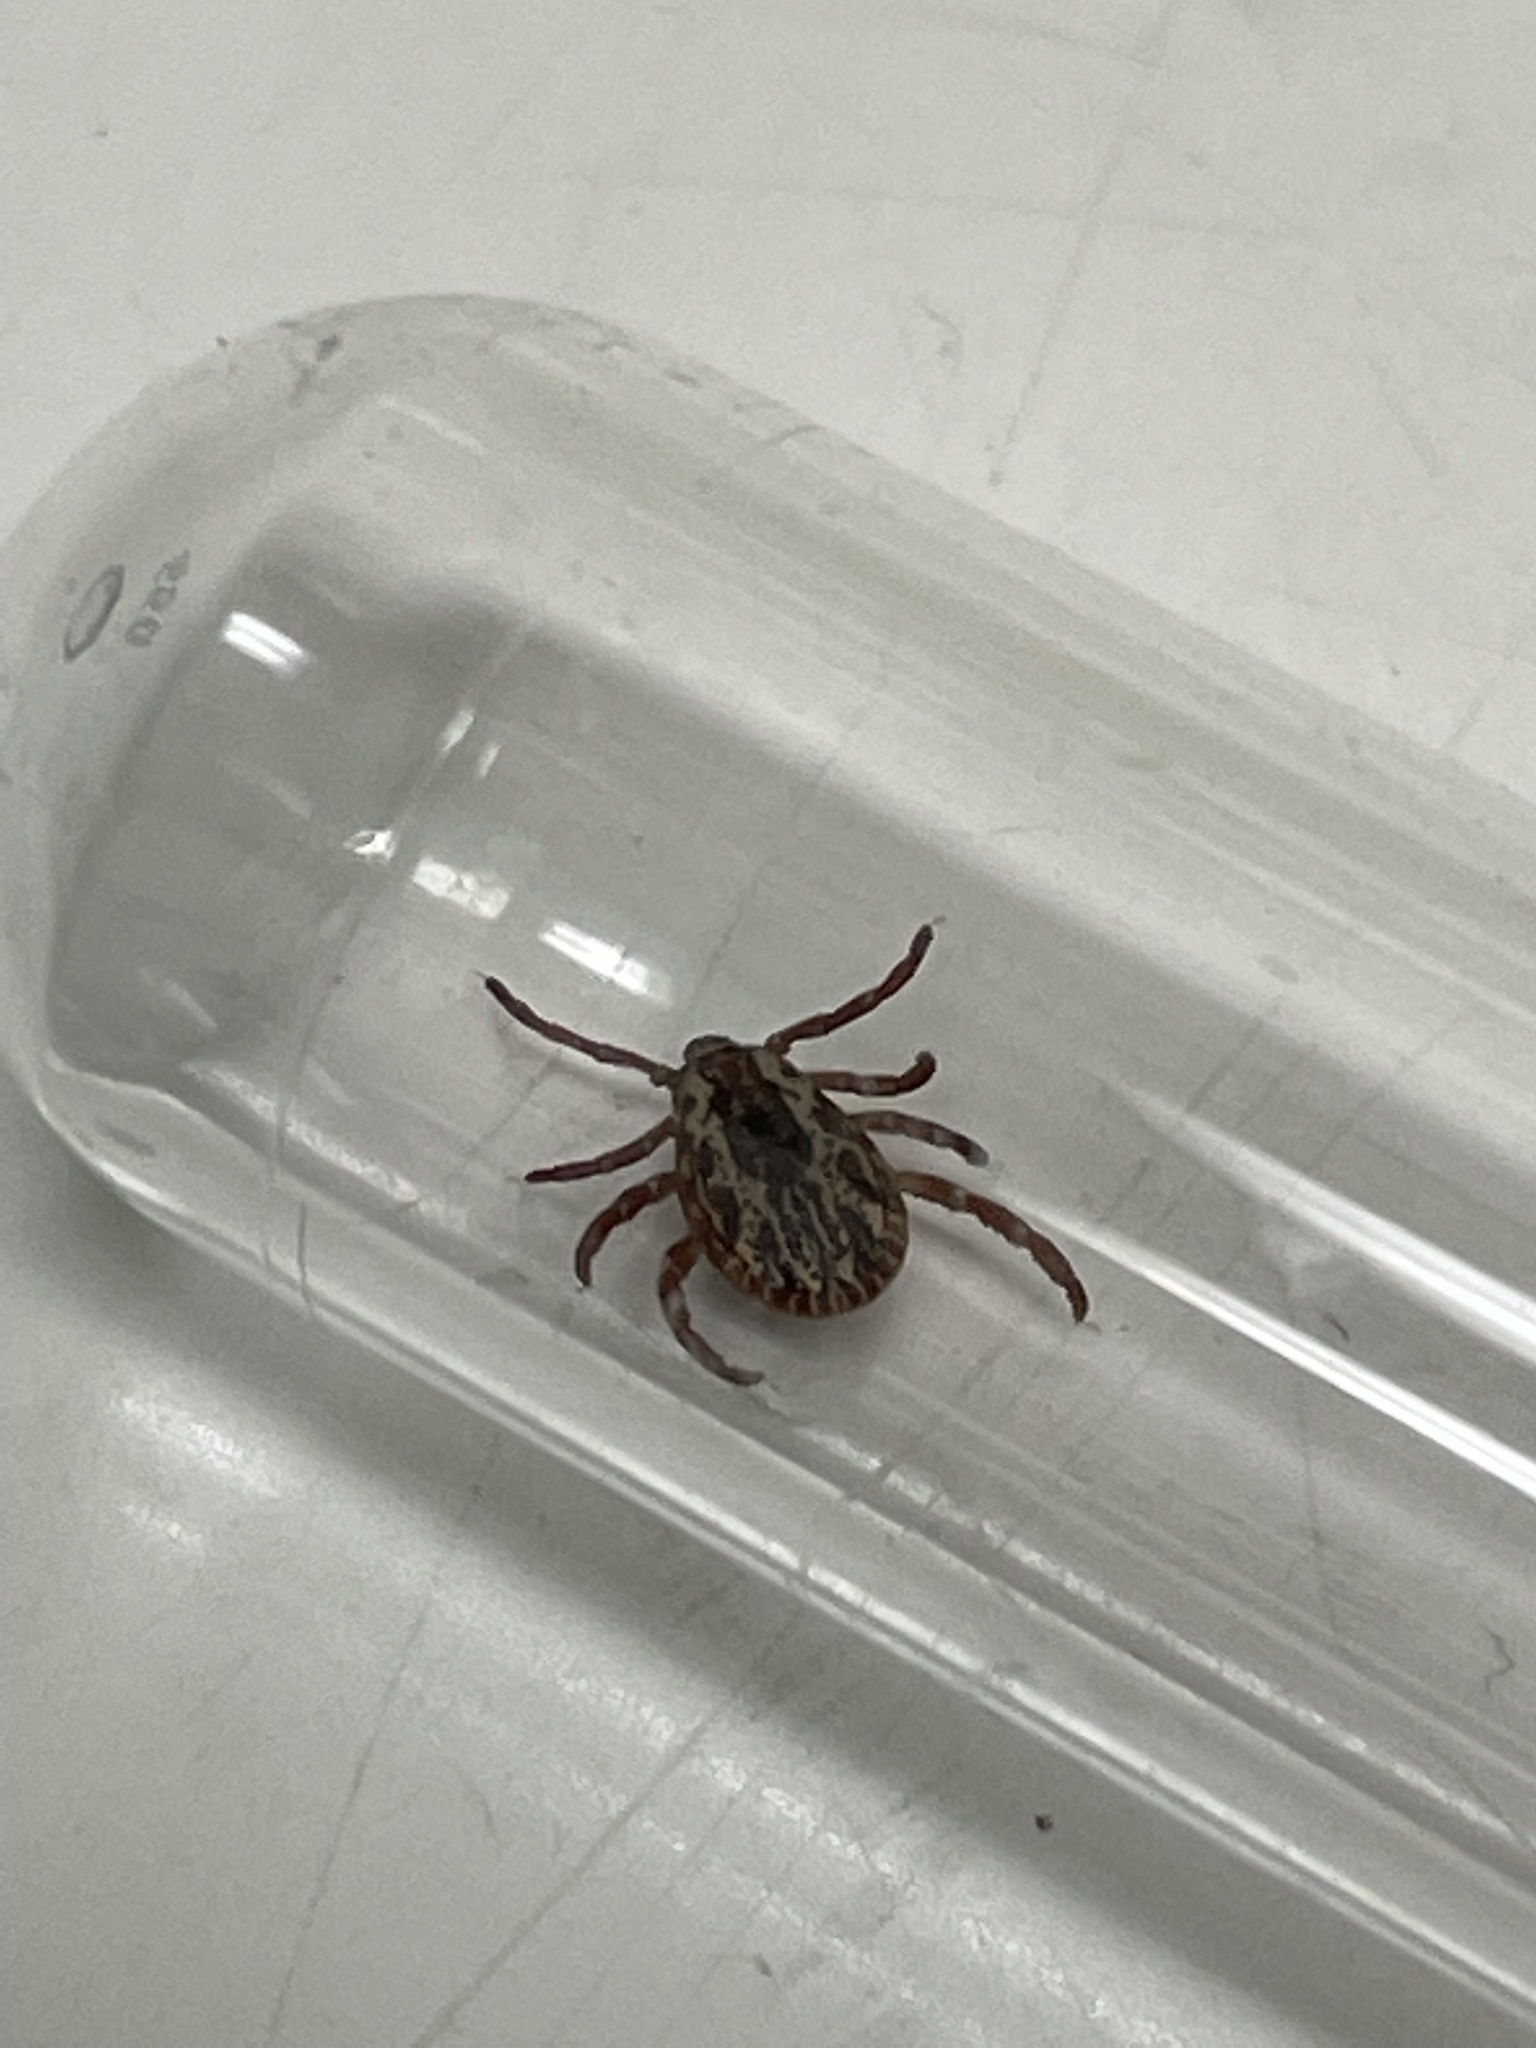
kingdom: Animalia
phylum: Arthropoda
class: Arachnida
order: Ixodida
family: Ixodidae
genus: Dermacentor
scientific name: Dermacentor variabilis
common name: American dog tick
